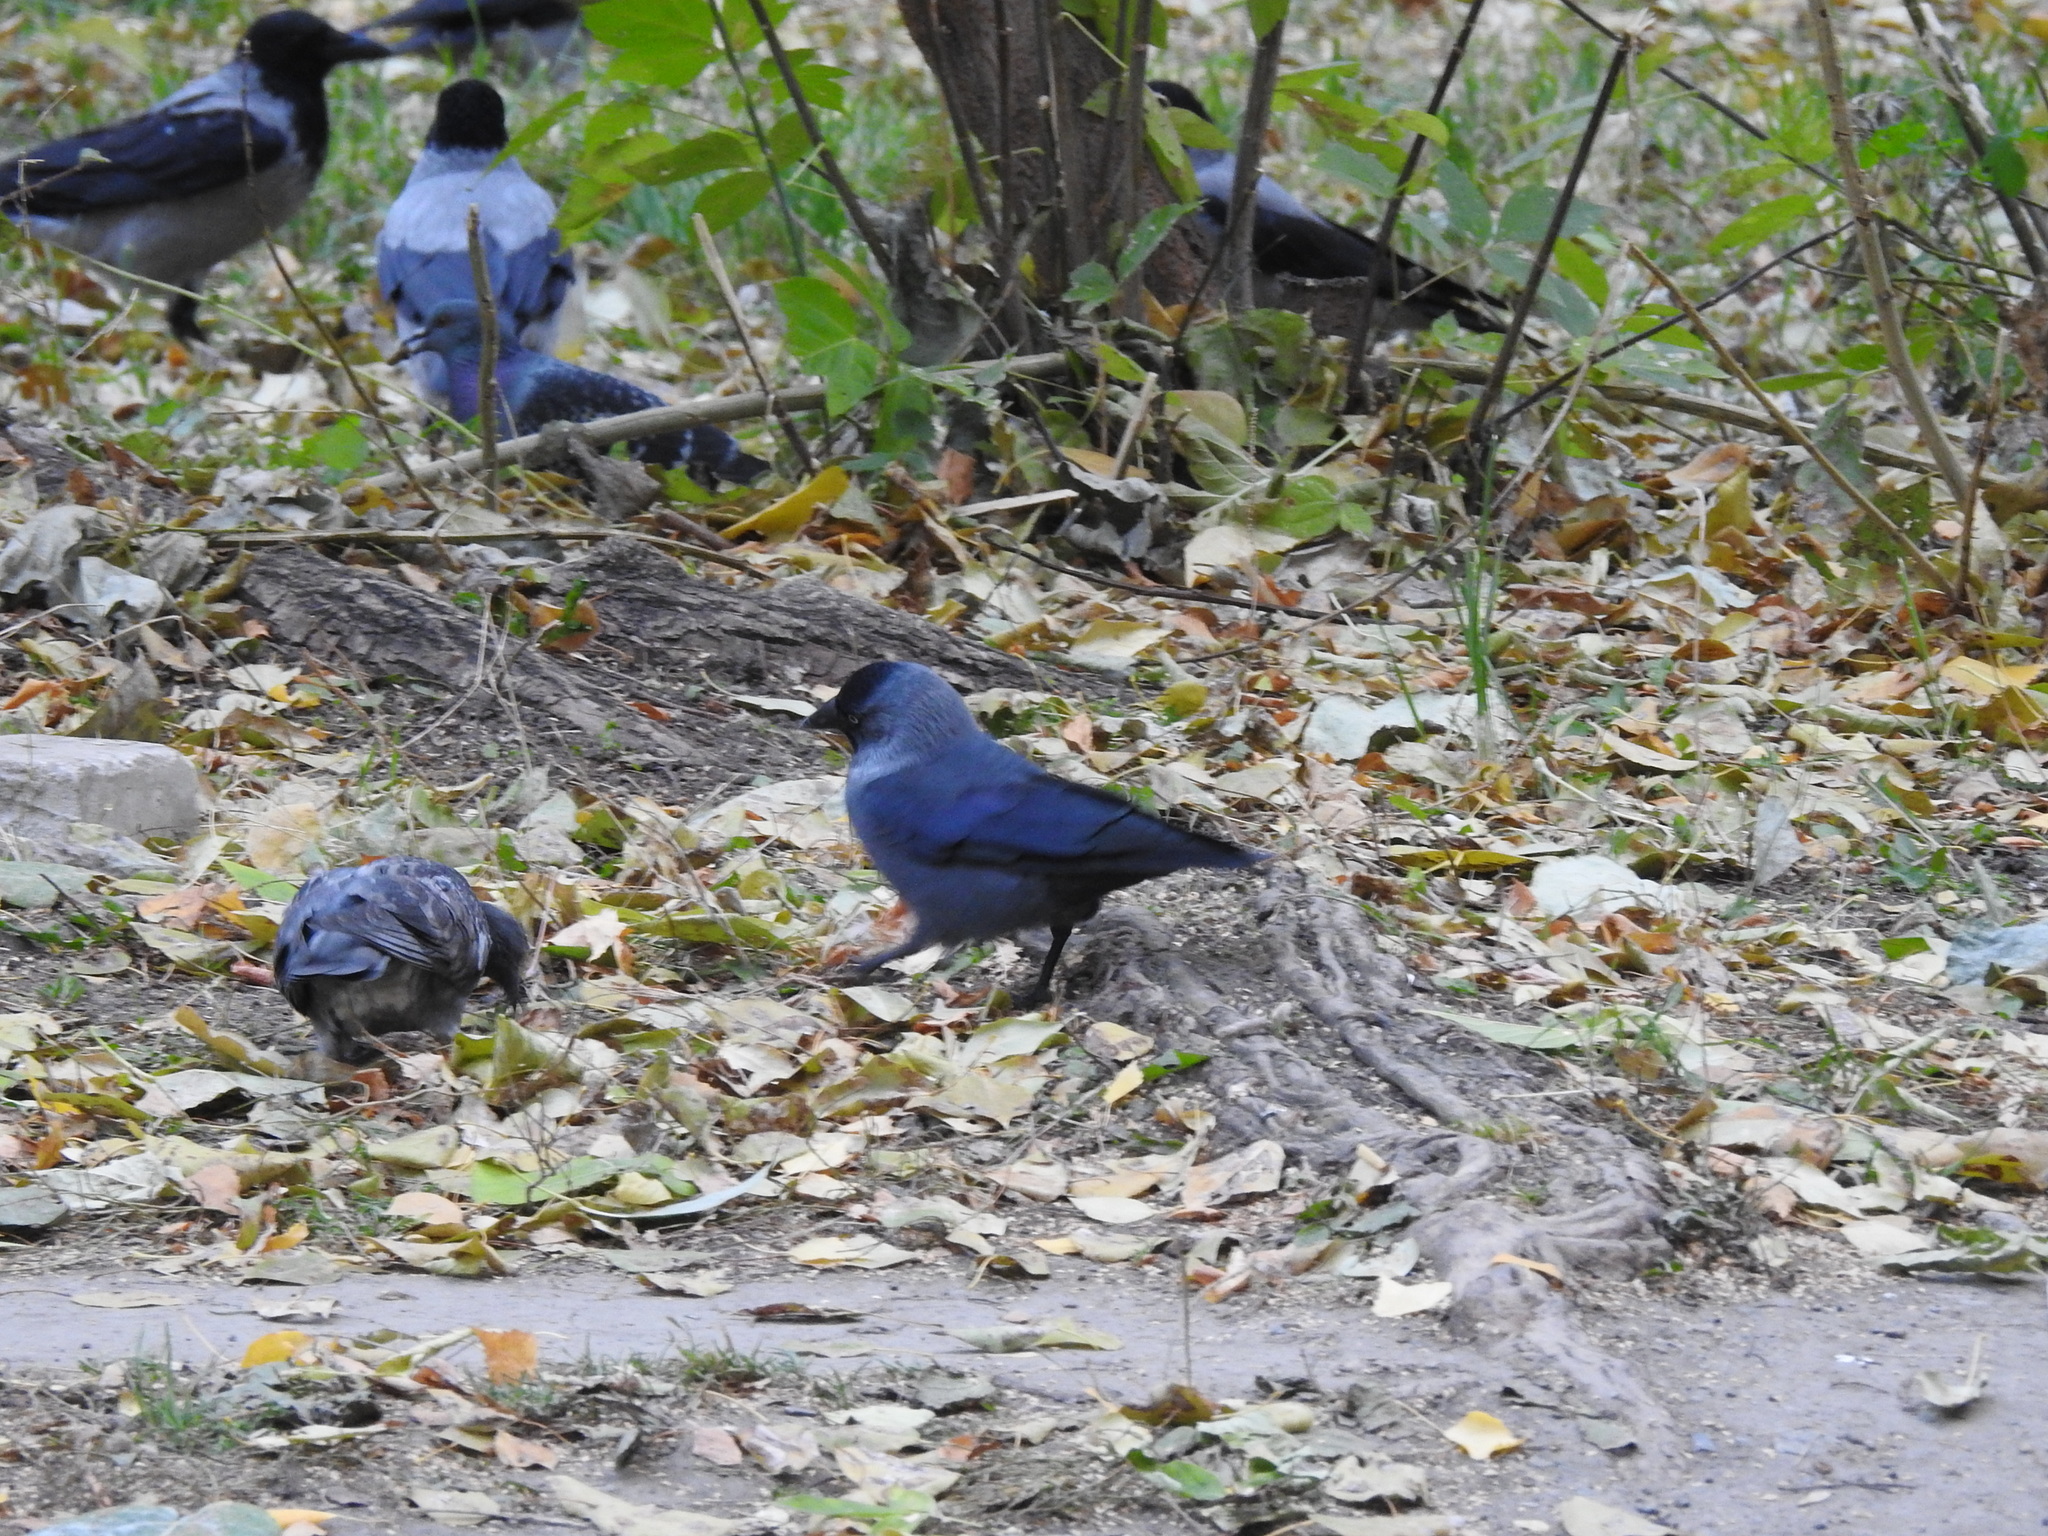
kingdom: Animalia
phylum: Chordata
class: Aves
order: Passeriformes
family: Corvidae
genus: Coloeus
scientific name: Coloeus monedula
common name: Western jackdaw
